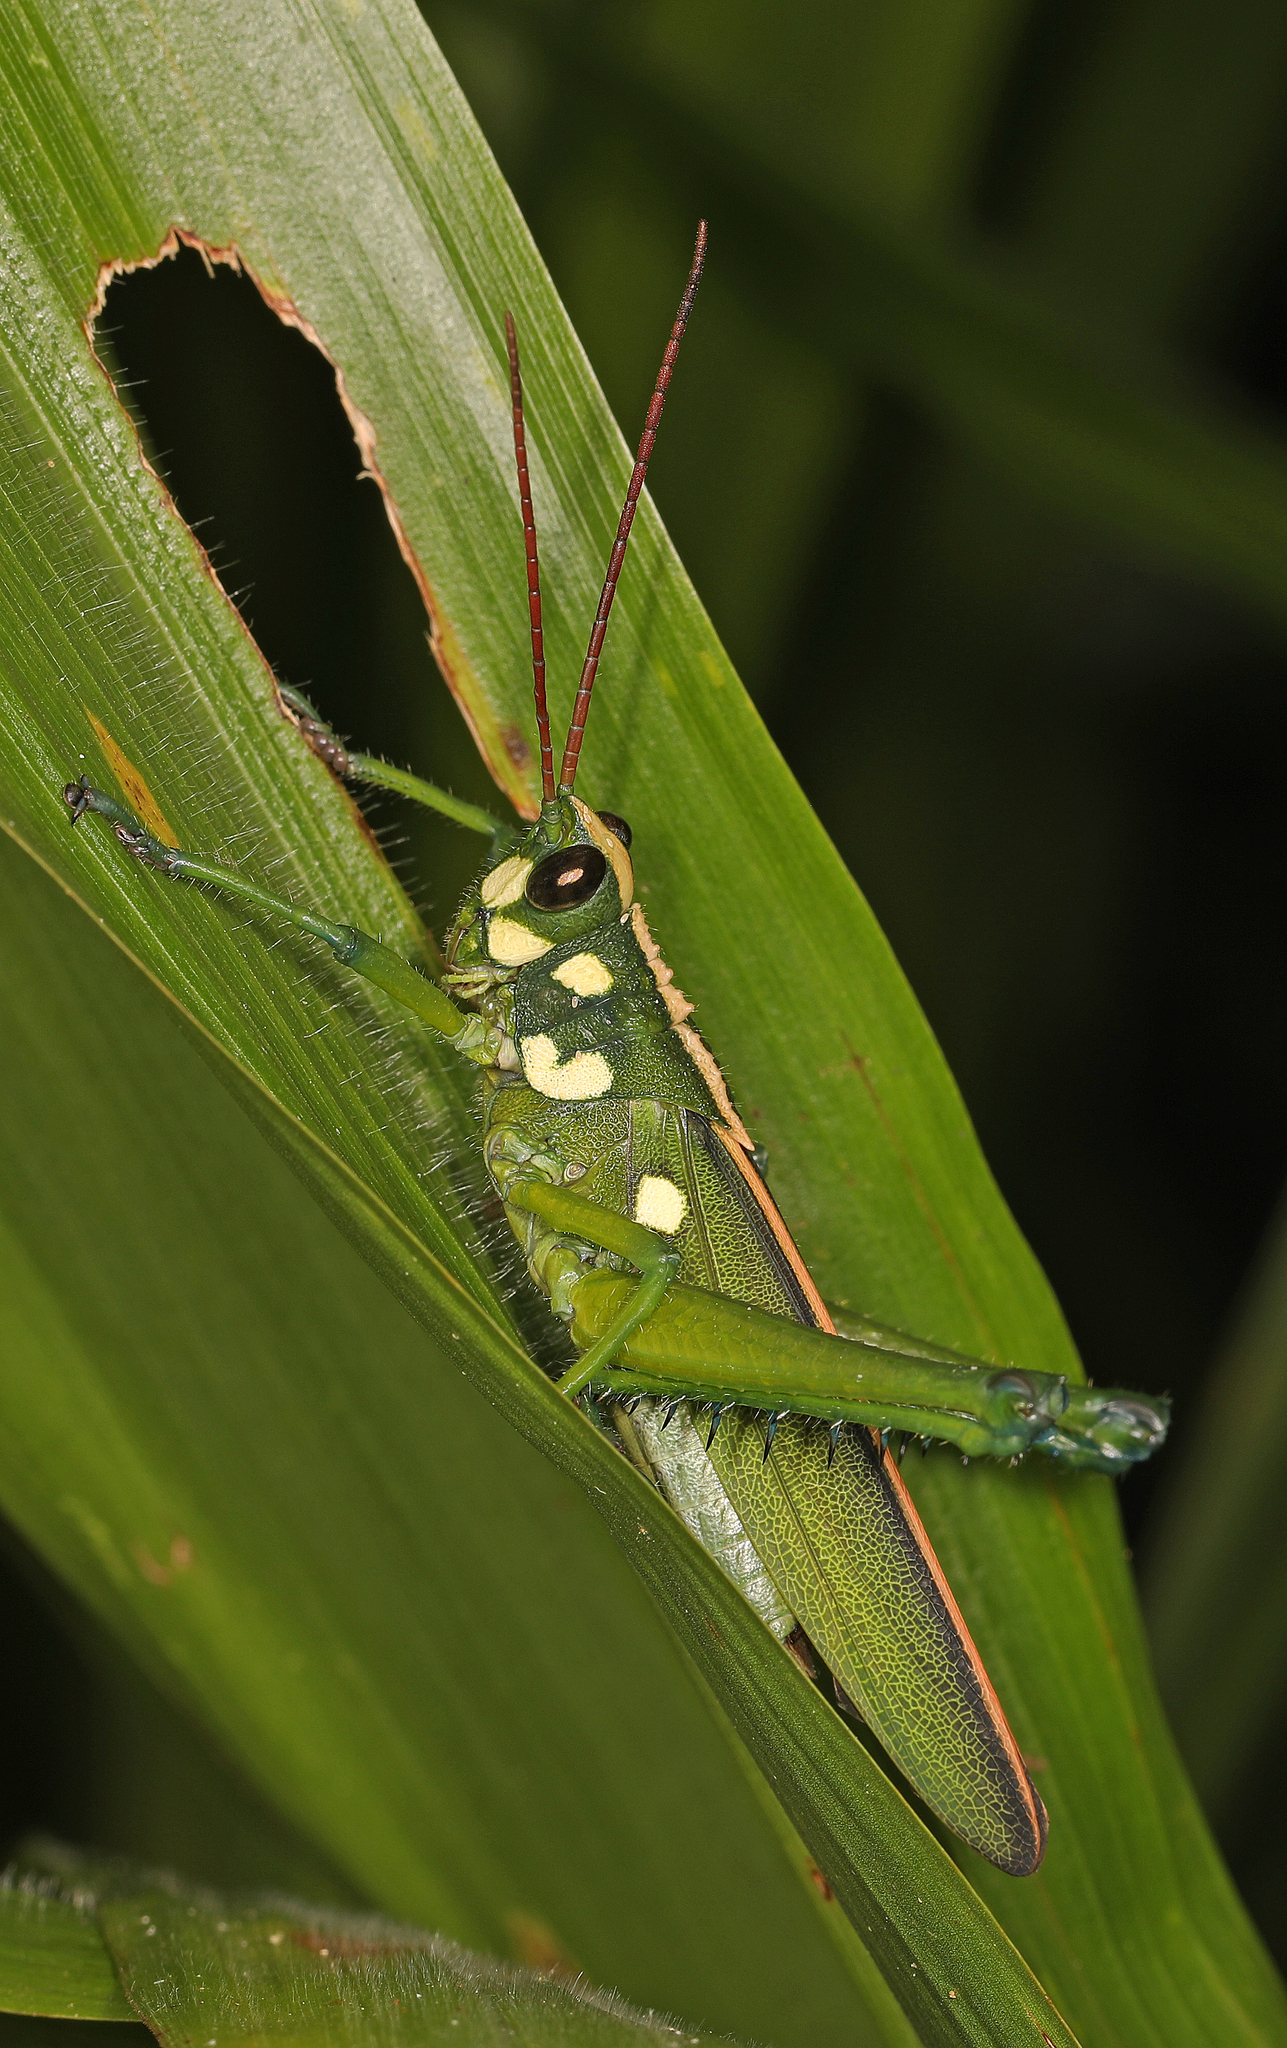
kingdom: Animalia
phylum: Arthropoda
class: Insecta
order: Orthoptera
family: Romaleidae
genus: Agriacris
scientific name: Agriacris magnifica
